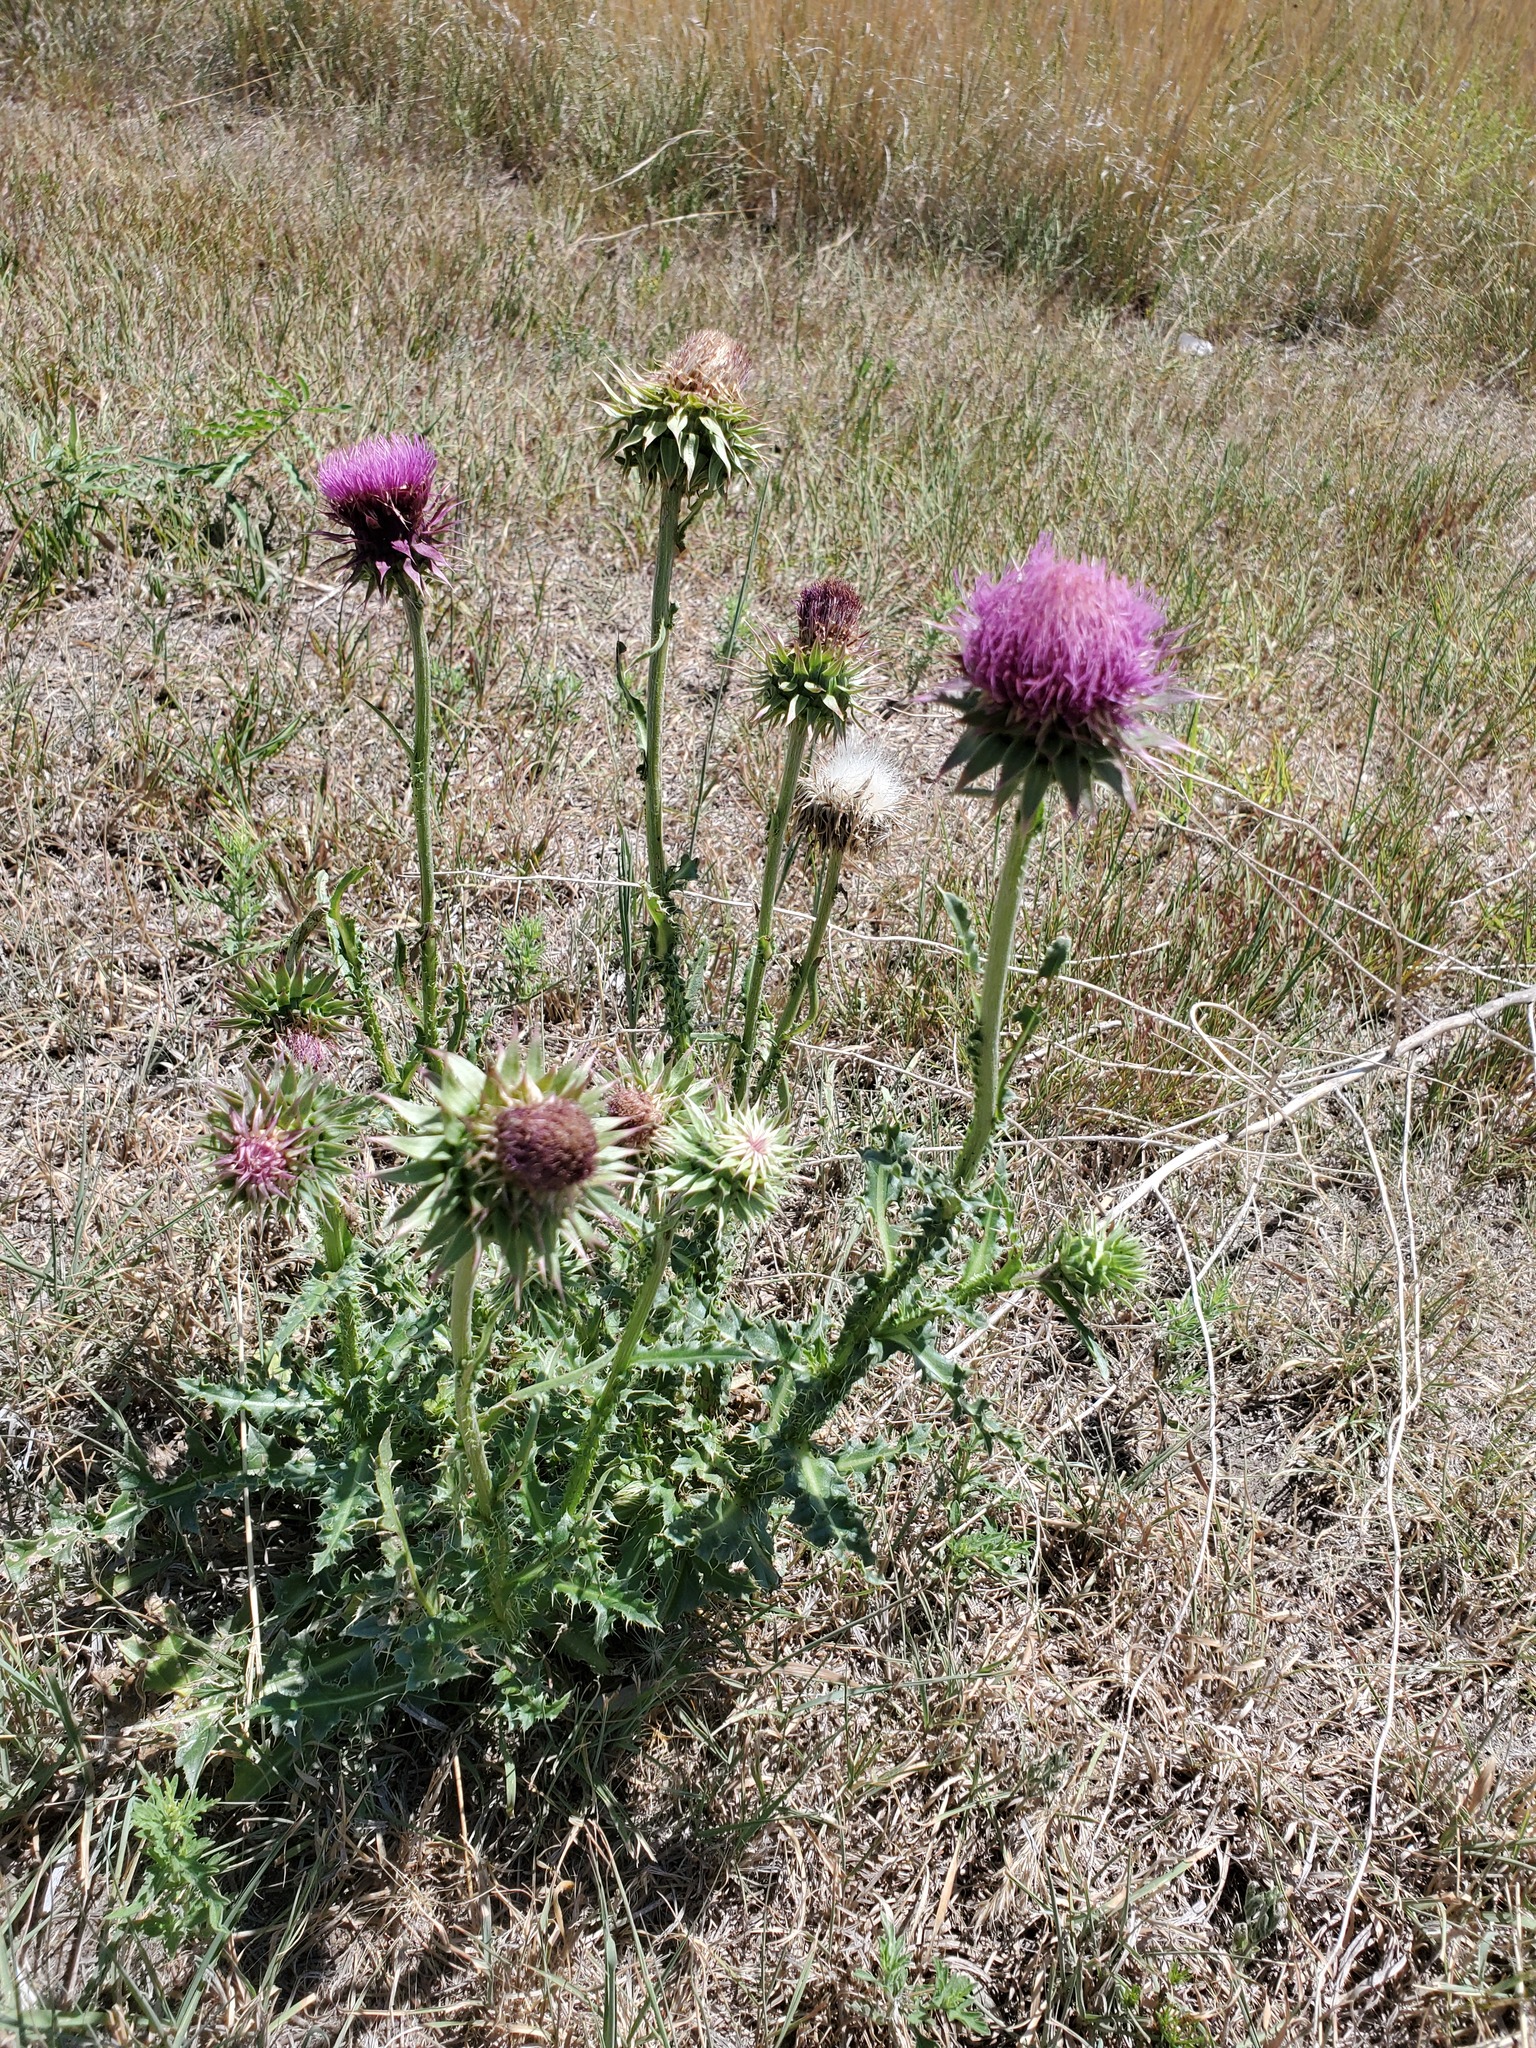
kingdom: Plantae
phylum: Tracheophyta
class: Magnoliopsida
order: Asterales
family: Asteraceae
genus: Carduus
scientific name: Carduus nutans
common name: Musk thistle
